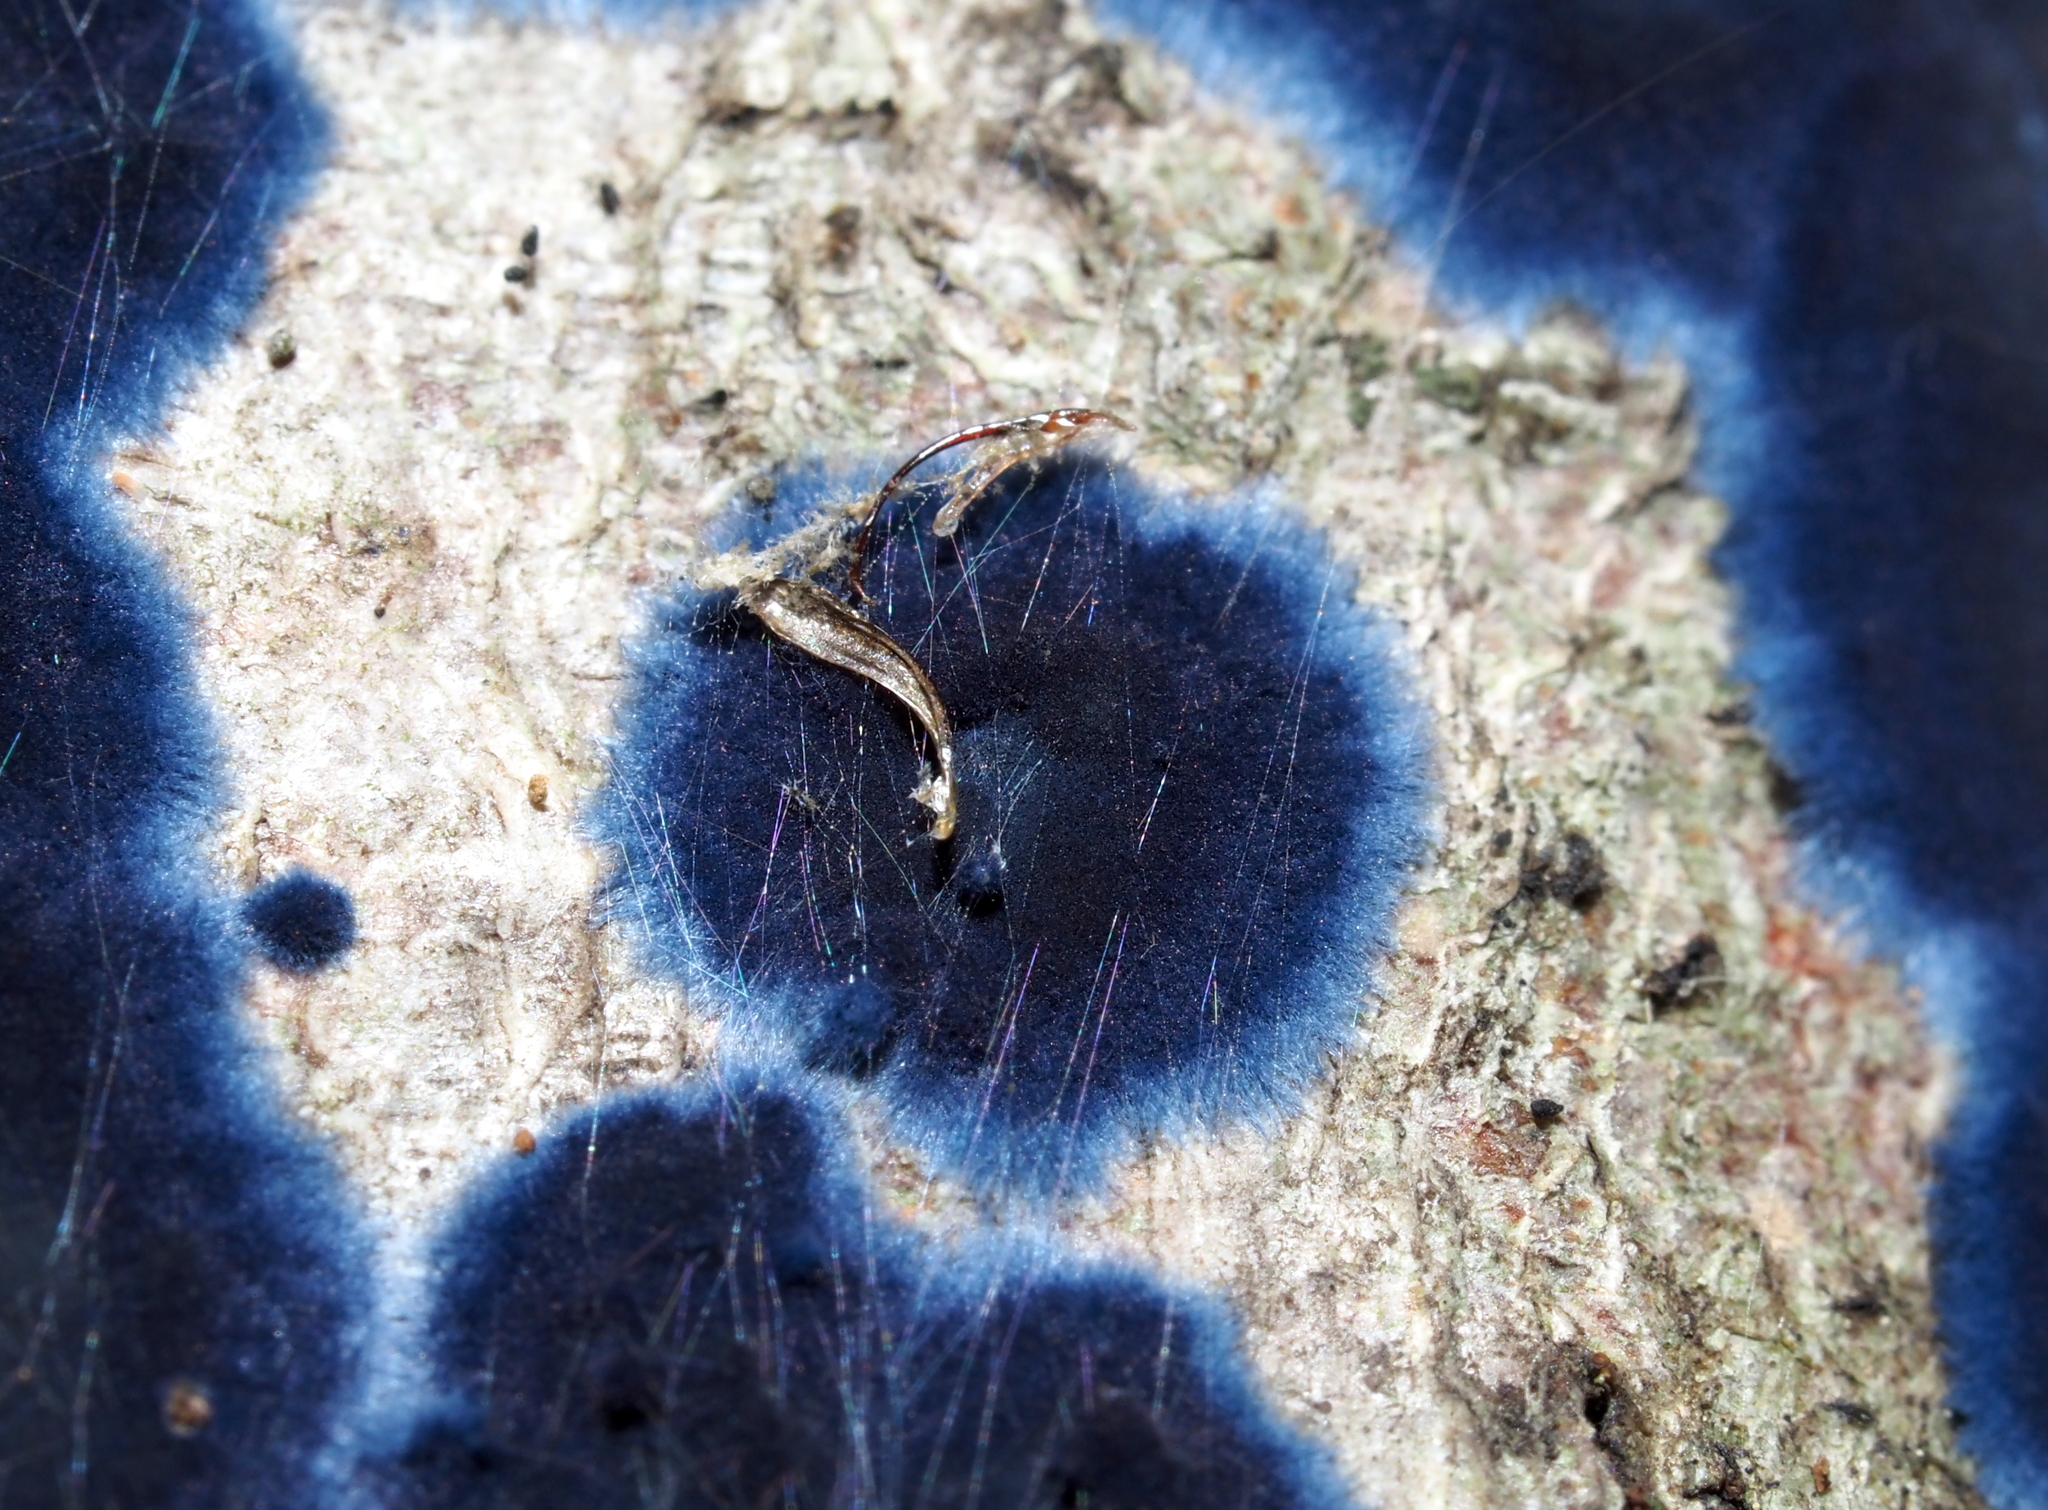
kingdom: Fungi
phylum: Basidiomycota
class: Agaricomycetes
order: Polyporales
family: Phanerochaetaceae
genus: Terana
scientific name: Terana coerulea
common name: Cobalt crust
